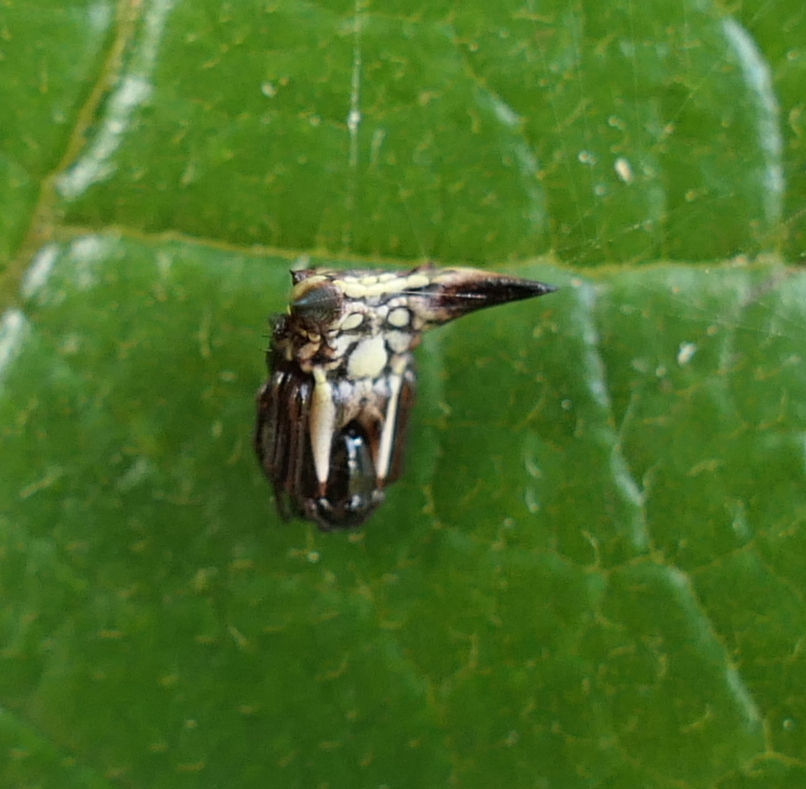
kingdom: Animalia
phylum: Arthropoda
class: Arachnida
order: Araneae
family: Araneidae
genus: Micrathena
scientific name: Micrathena evansi
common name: Orb weavers
